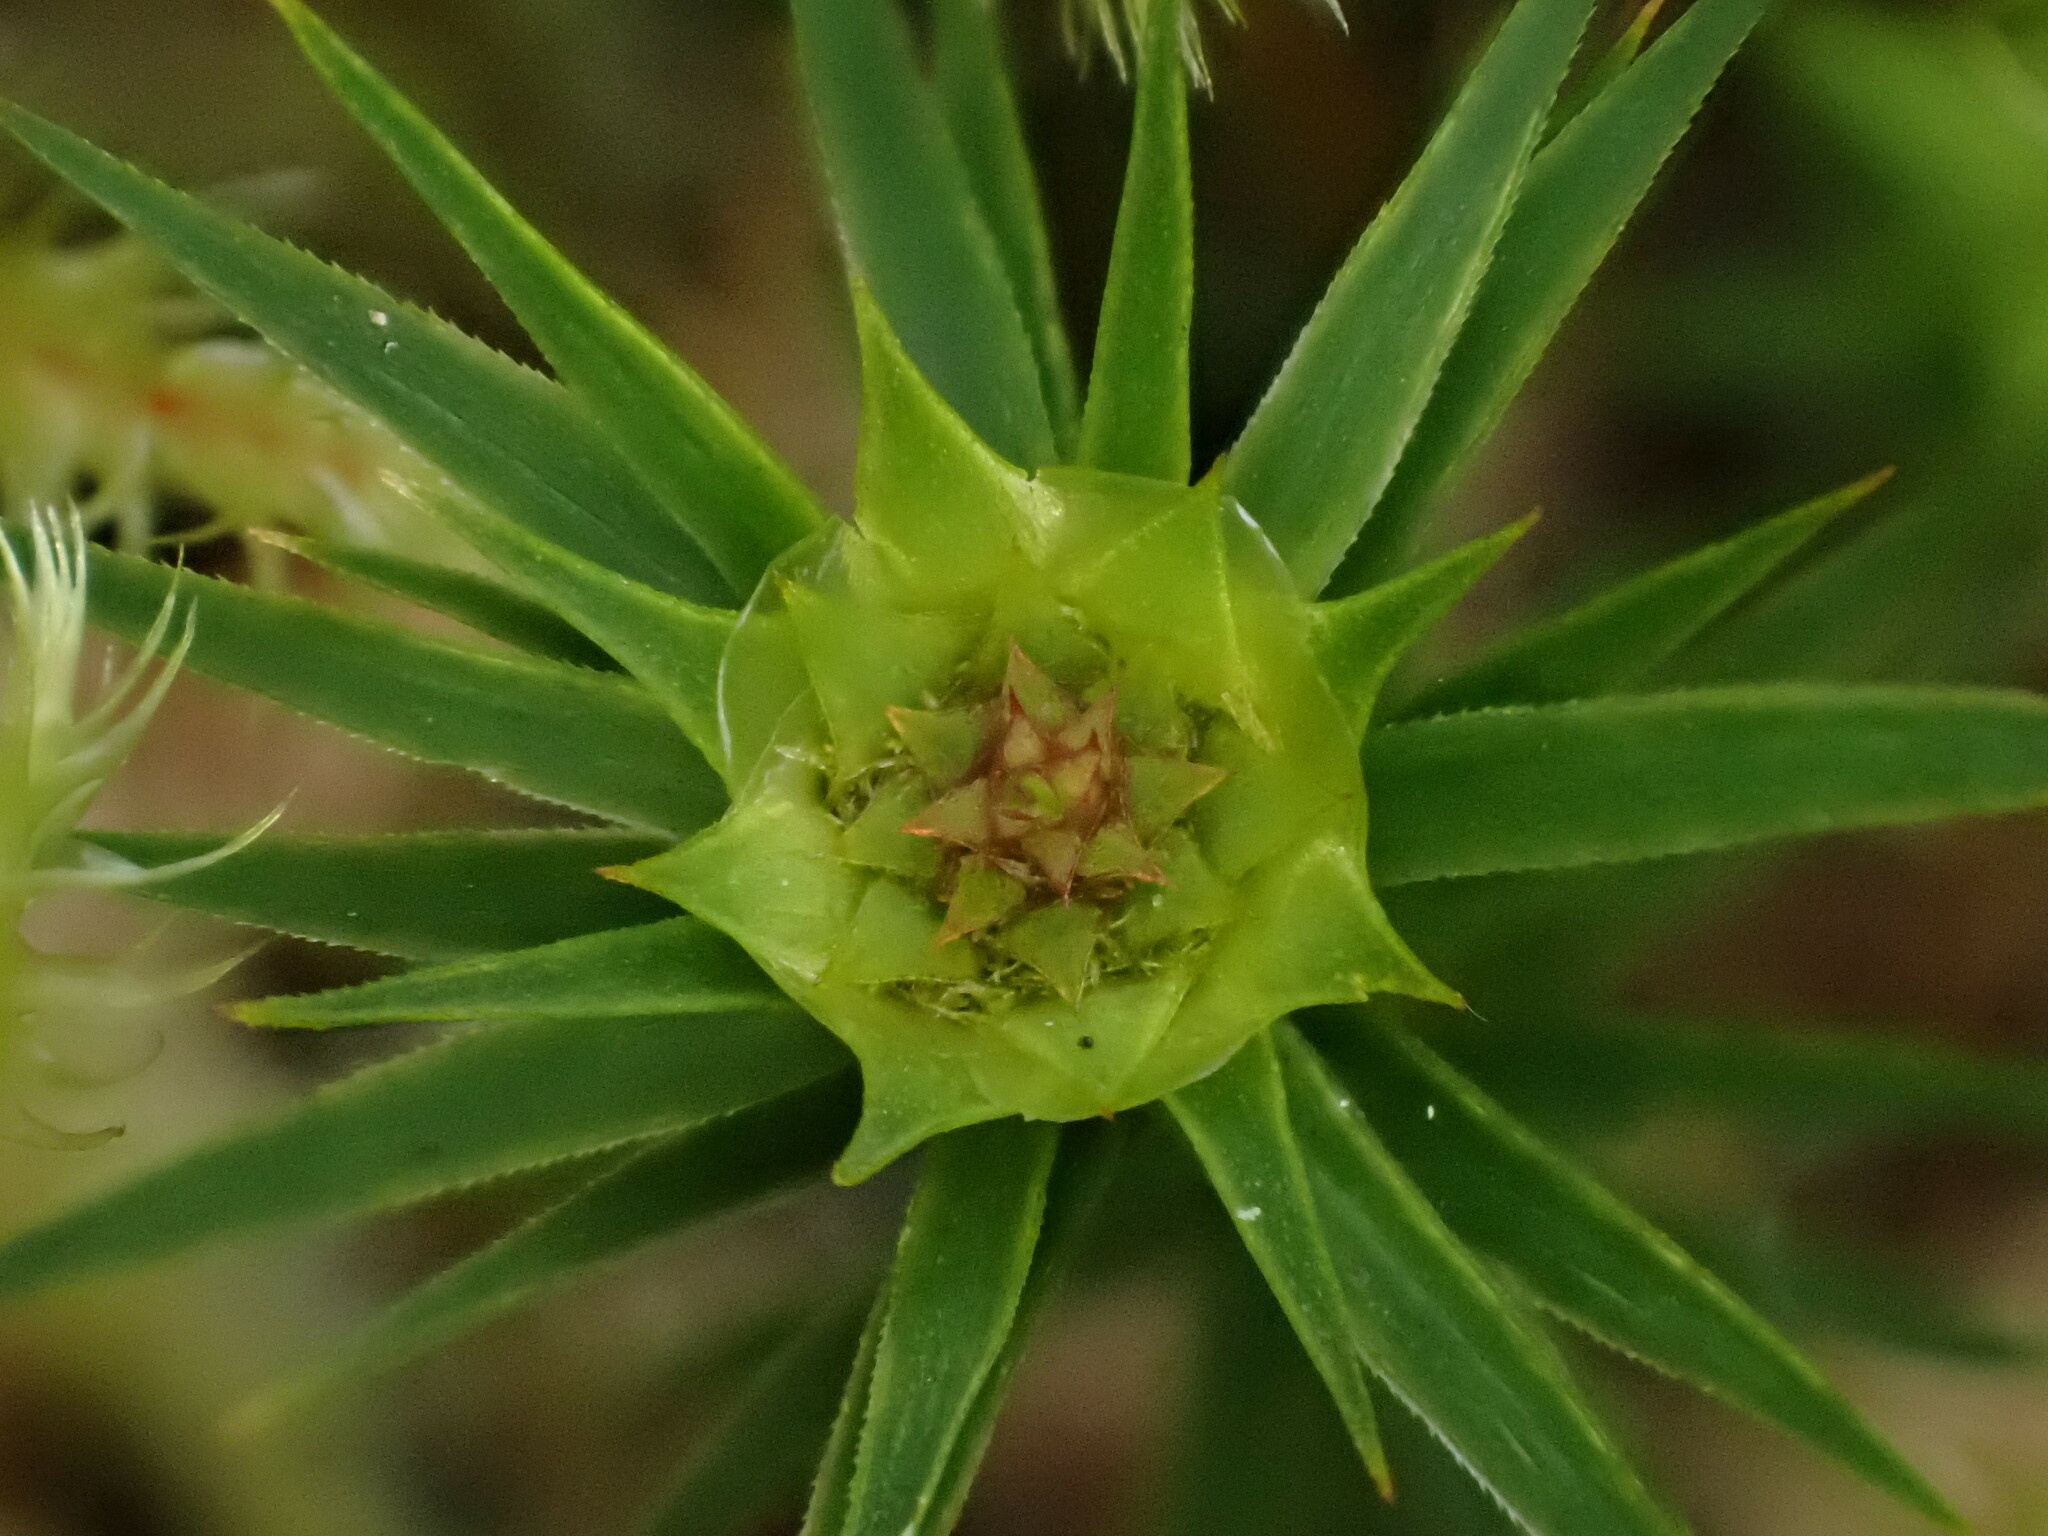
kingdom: Plantae
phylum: Bryophyta
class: Polytrichopsida
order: Polytrichales
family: Polytrichaceae
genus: Polytrichum
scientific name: Polytrichum juniperinum
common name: Juniper haircap moss
